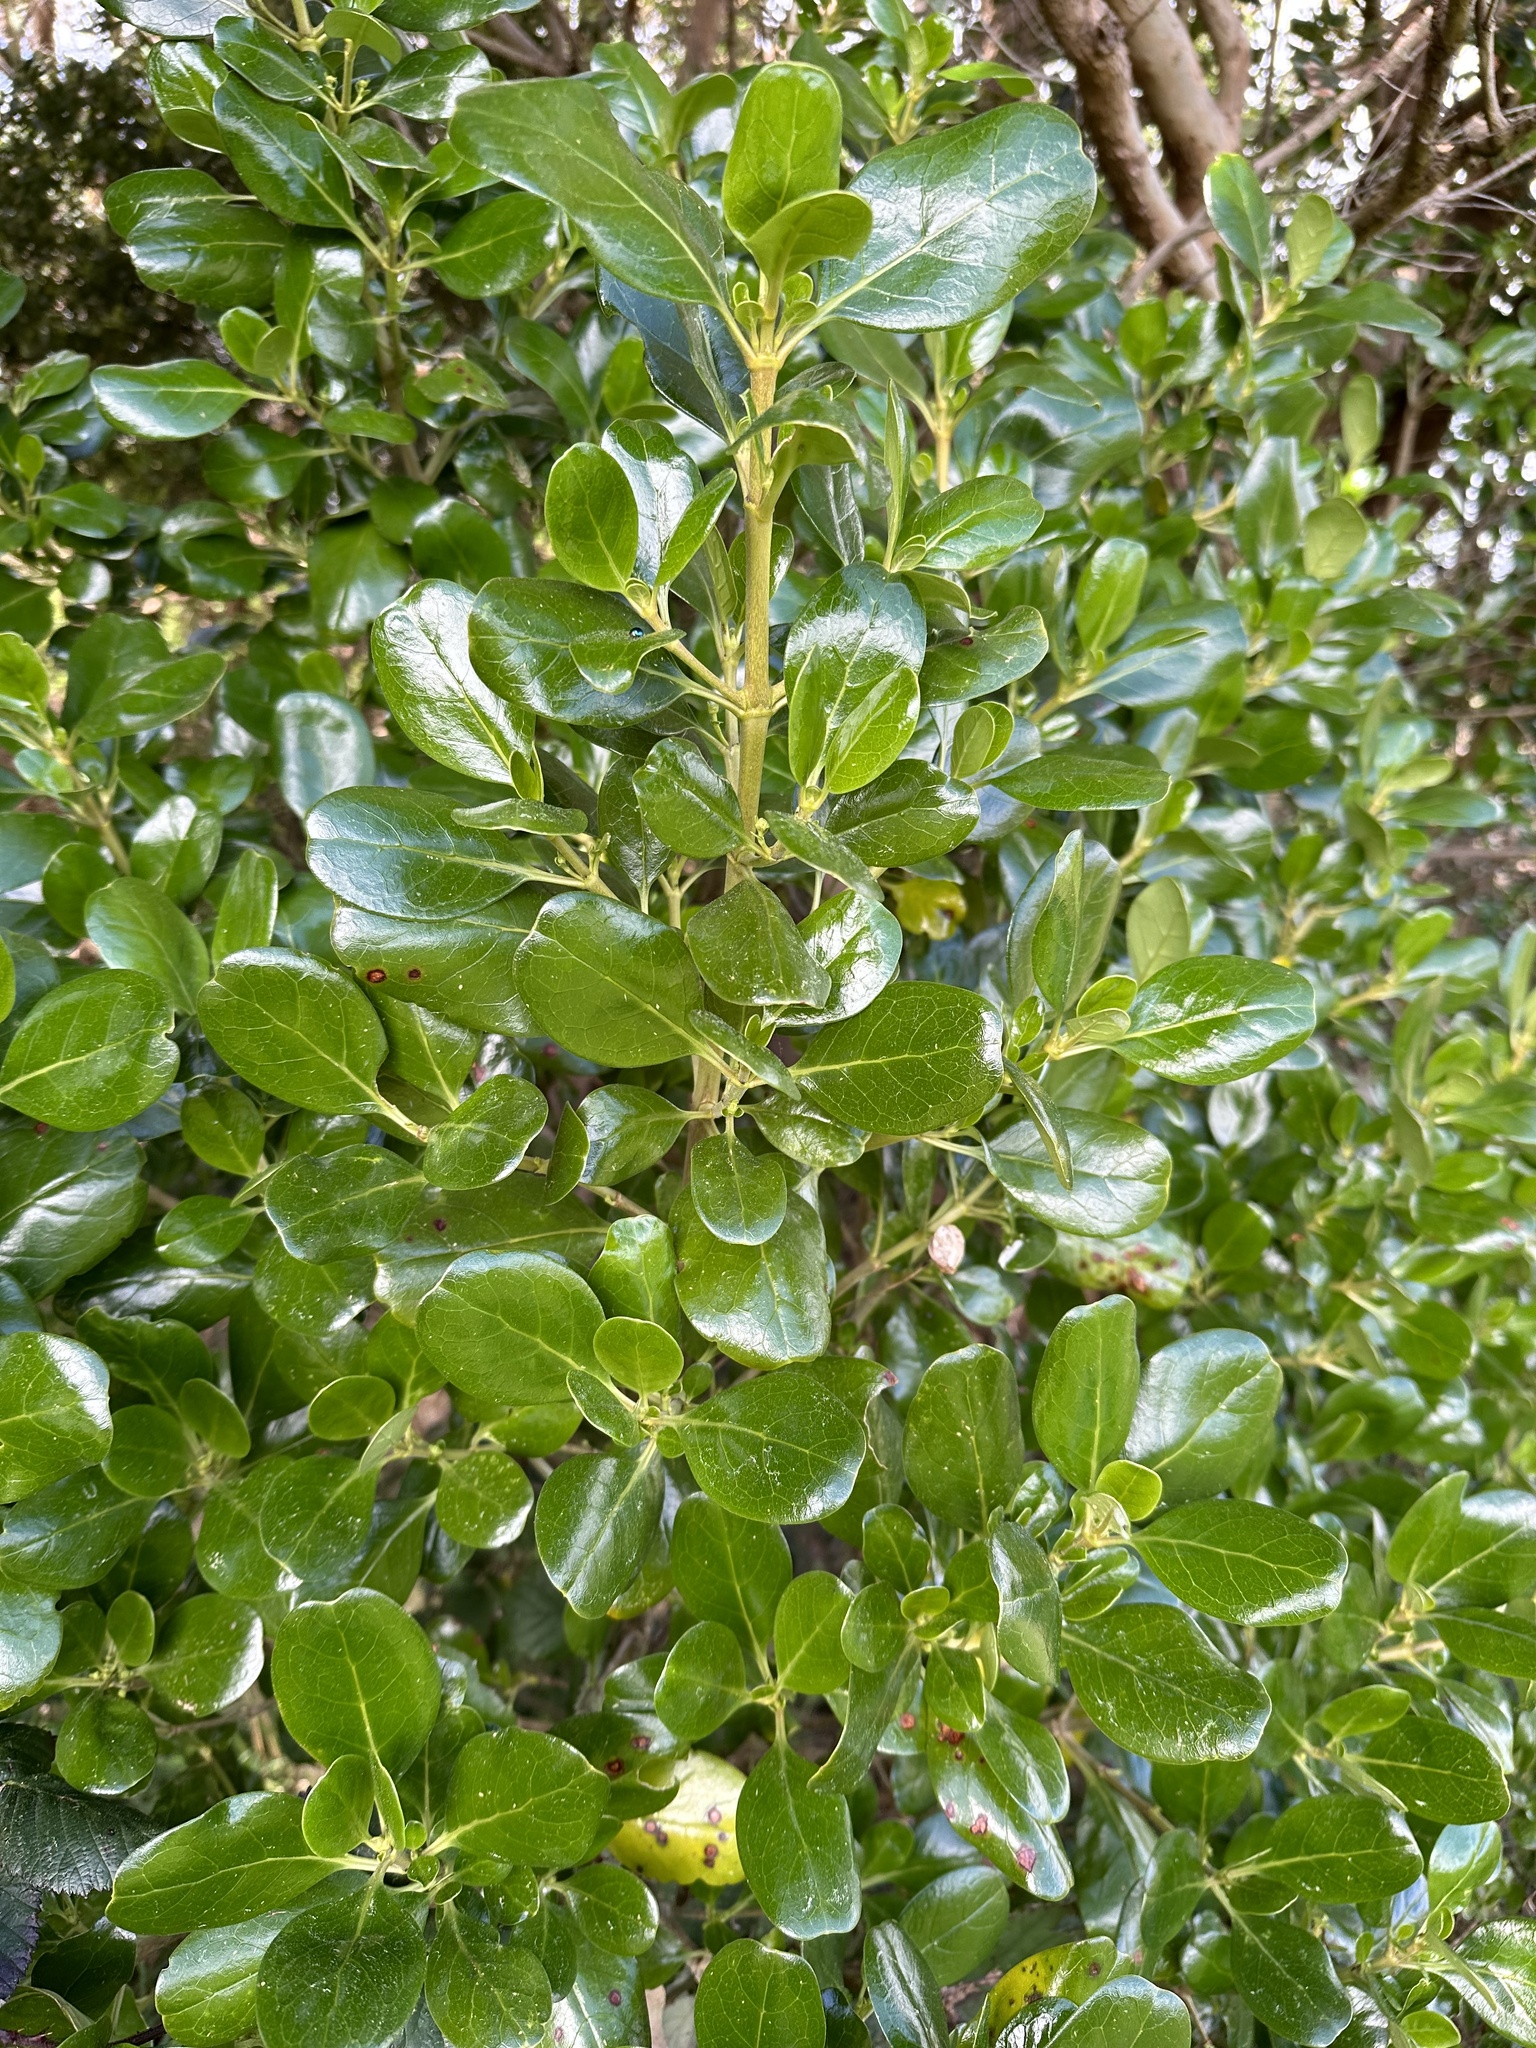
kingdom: Plantae
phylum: Tracheophyta
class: Magnoliopsida
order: Gentianales
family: Rubiaceae
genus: Coprosma
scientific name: Coprosma repens
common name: Tree bedstraw
